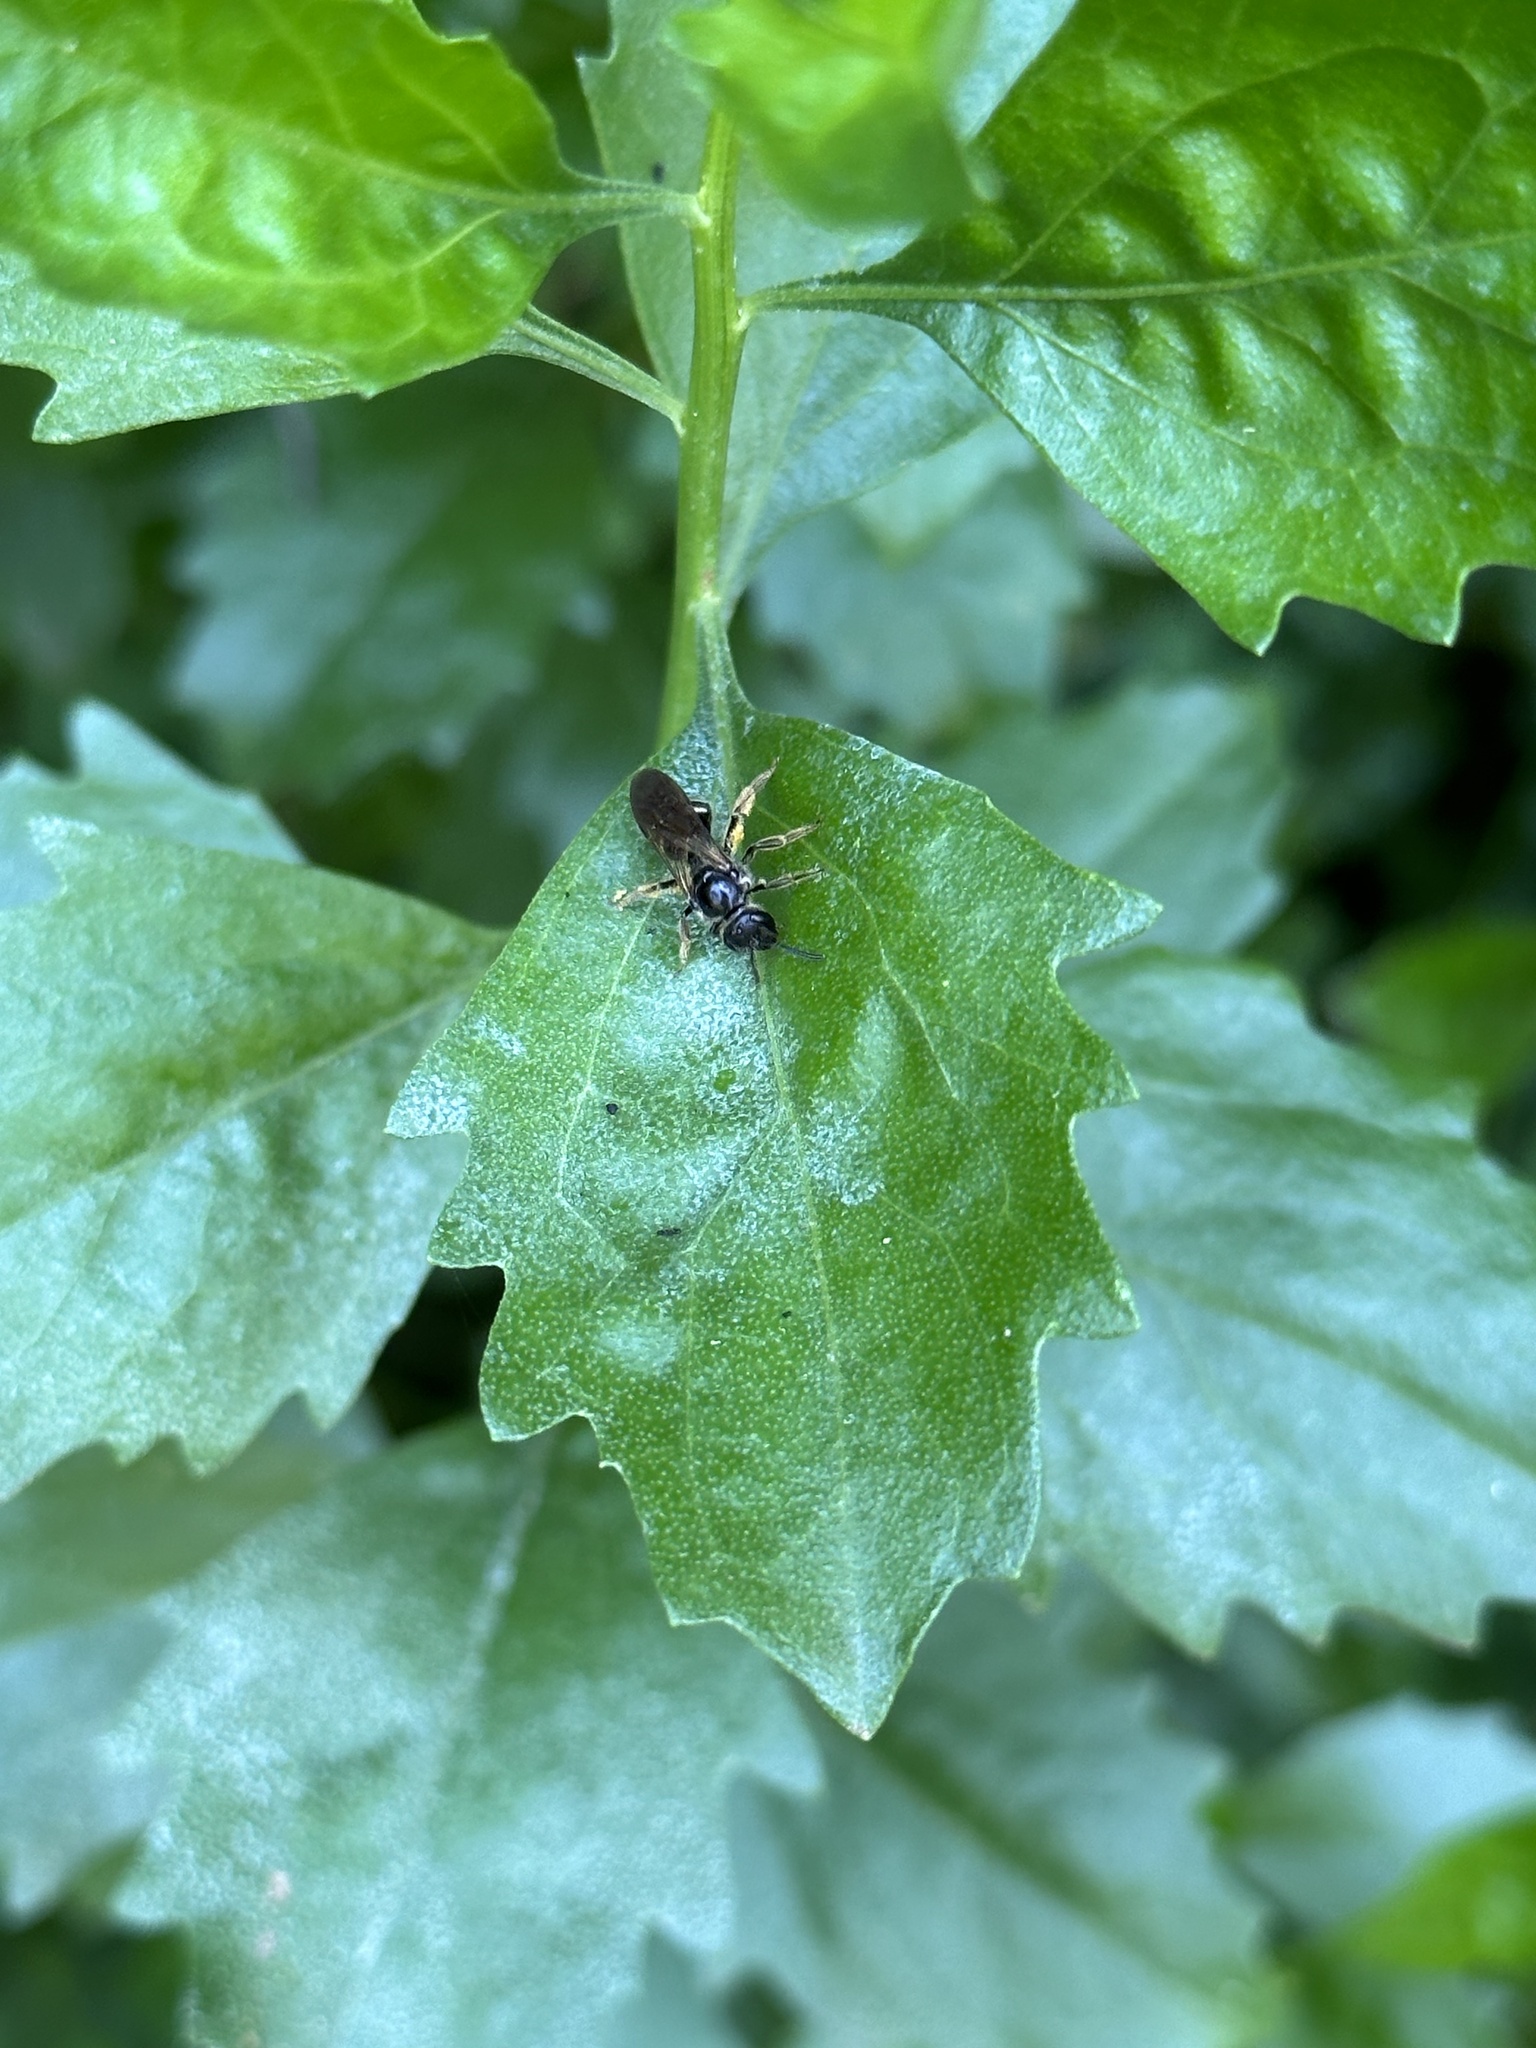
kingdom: Animalia
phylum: Arthropoda
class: Insecta
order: Hymenoptera
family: Halictidae
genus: Lasioglossum
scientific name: Lasioglossum fuscipenne
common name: Brown-winged sweat bee
